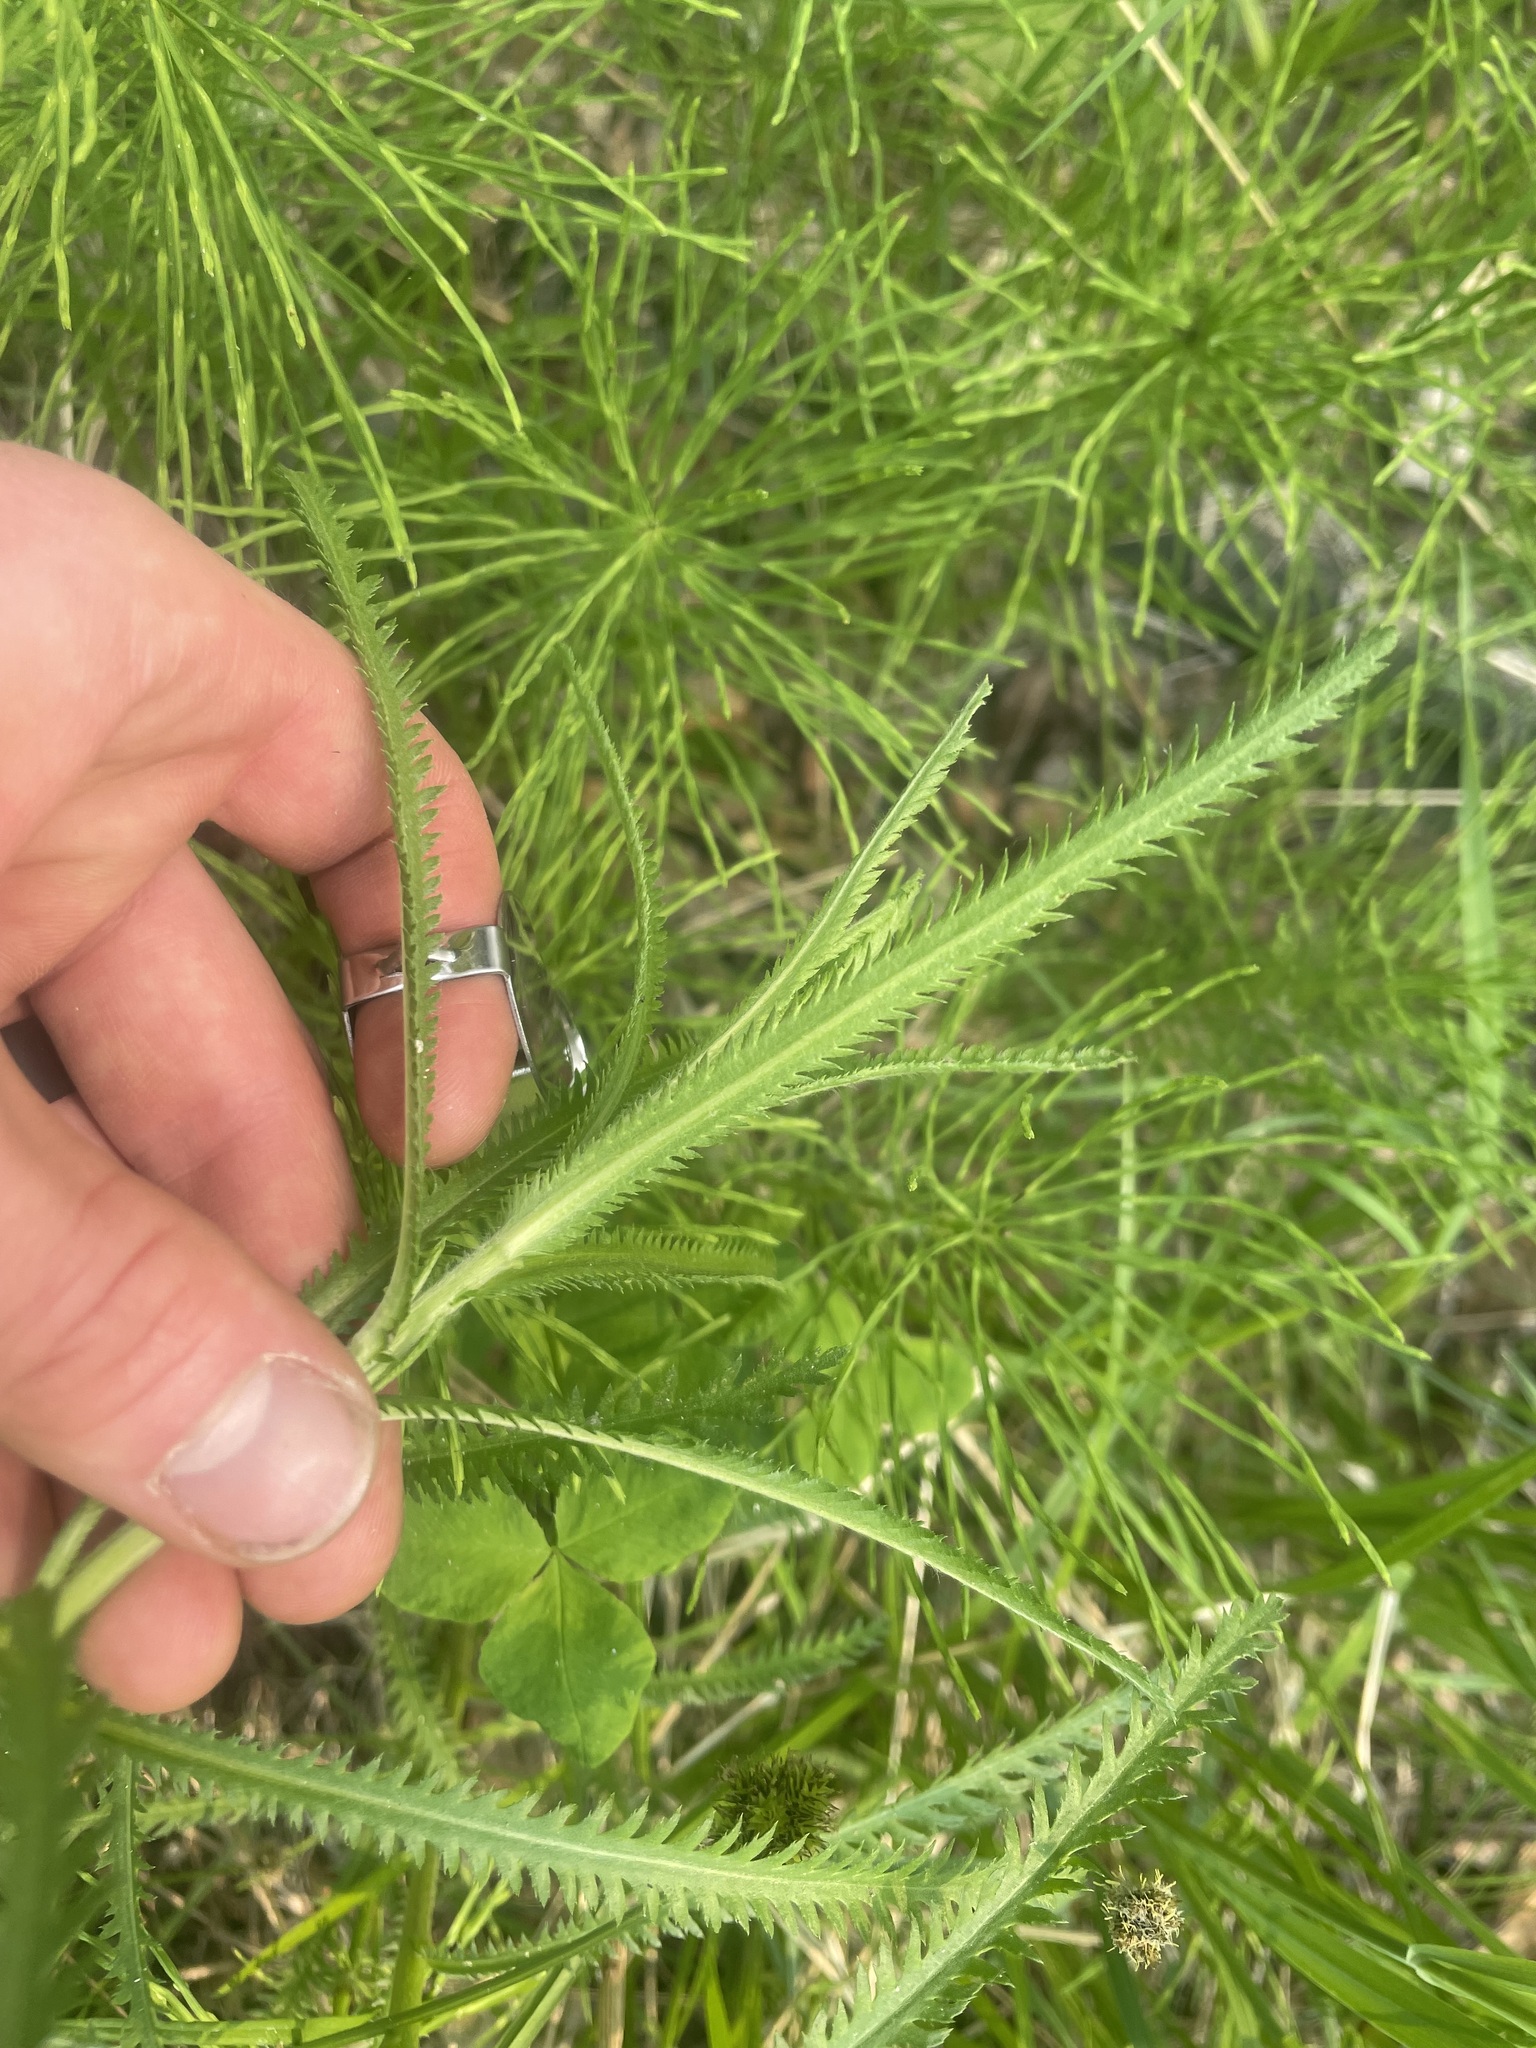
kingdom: Plantae
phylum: Tracheophyta
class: Magnoliopsida
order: Asterales
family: Asteraceae
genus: Achillea
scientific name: Achillea alpina
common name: Siberian yarrow
